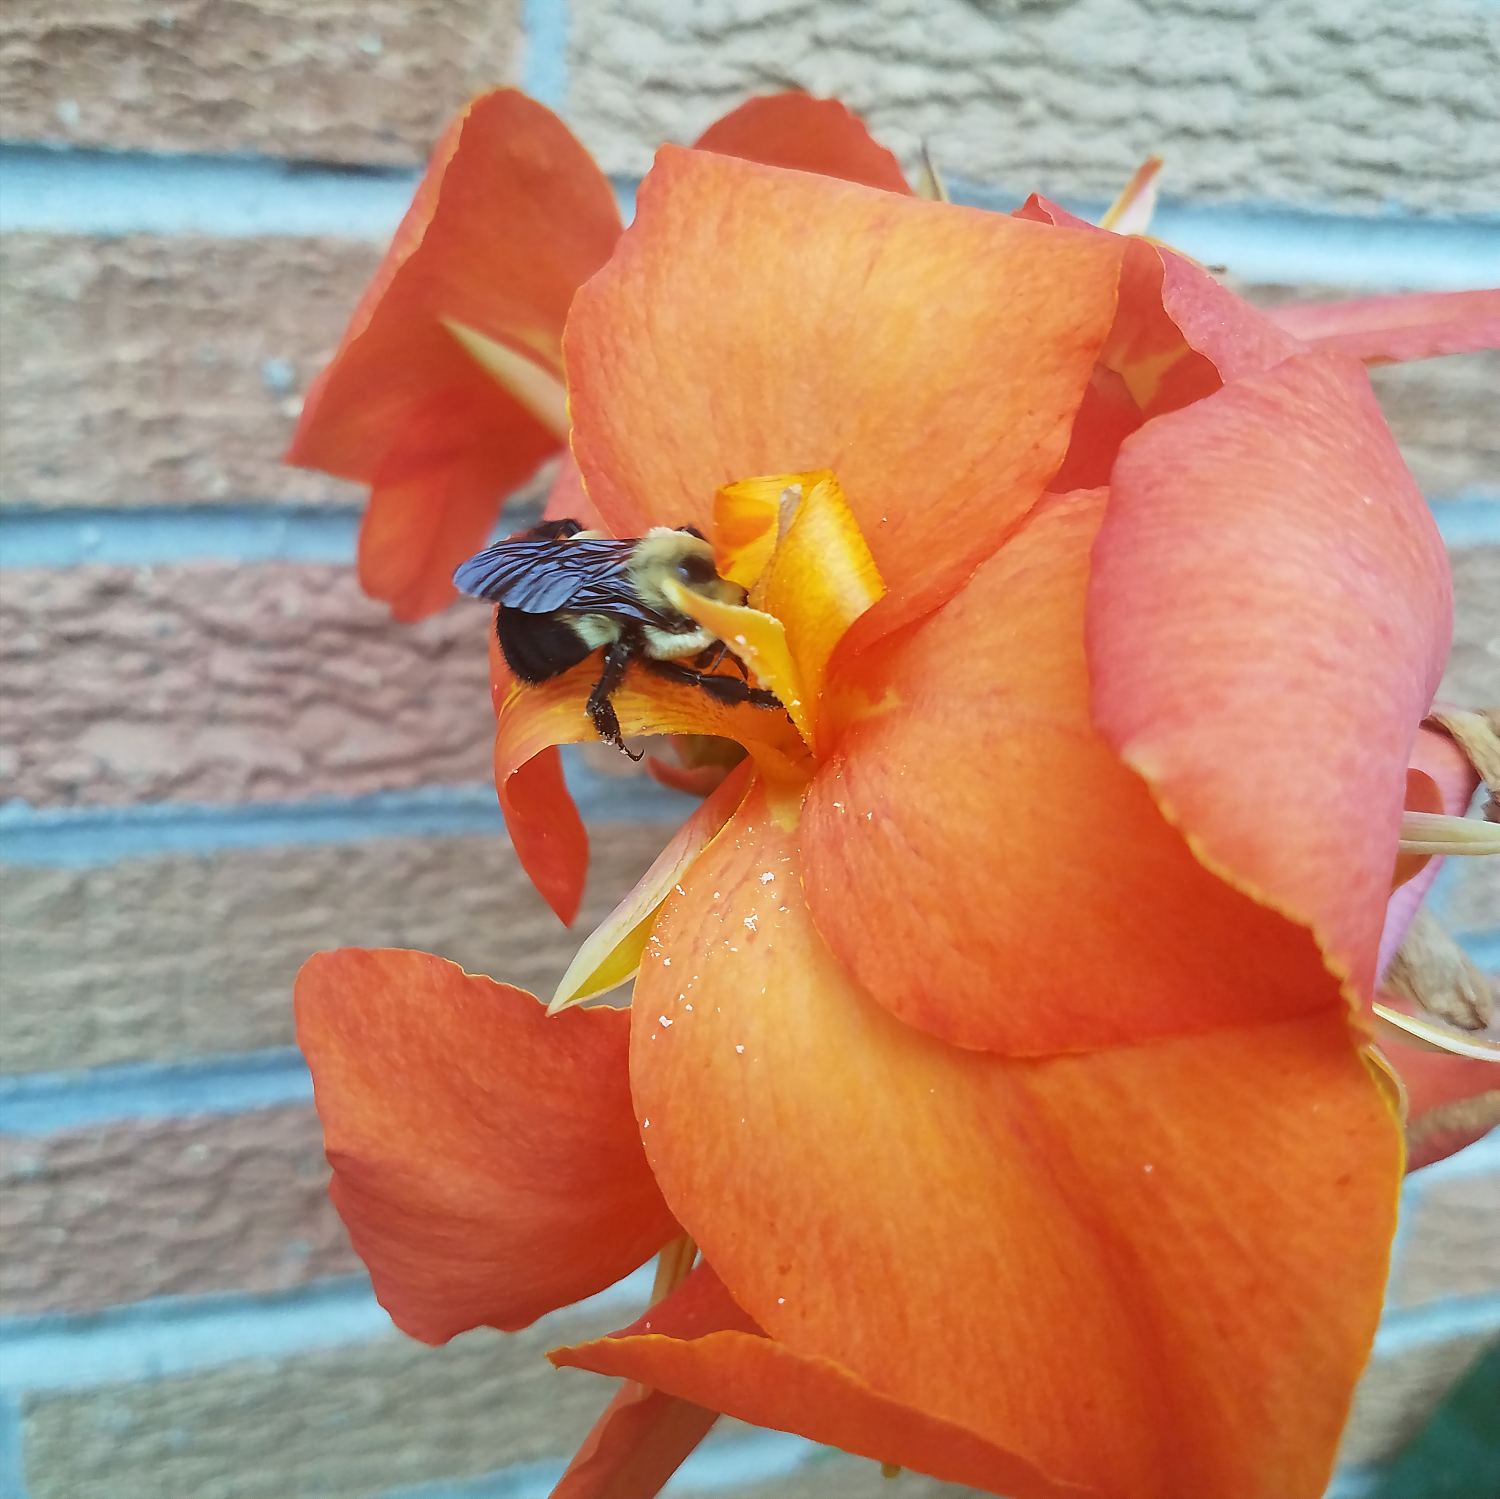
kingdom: Animalia
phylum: Arthropoda
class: Insecta
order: Hymenoptera
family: Apidae
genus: Bombus
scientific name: Bombus griseocollis
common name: Brown-belted bumble bee
